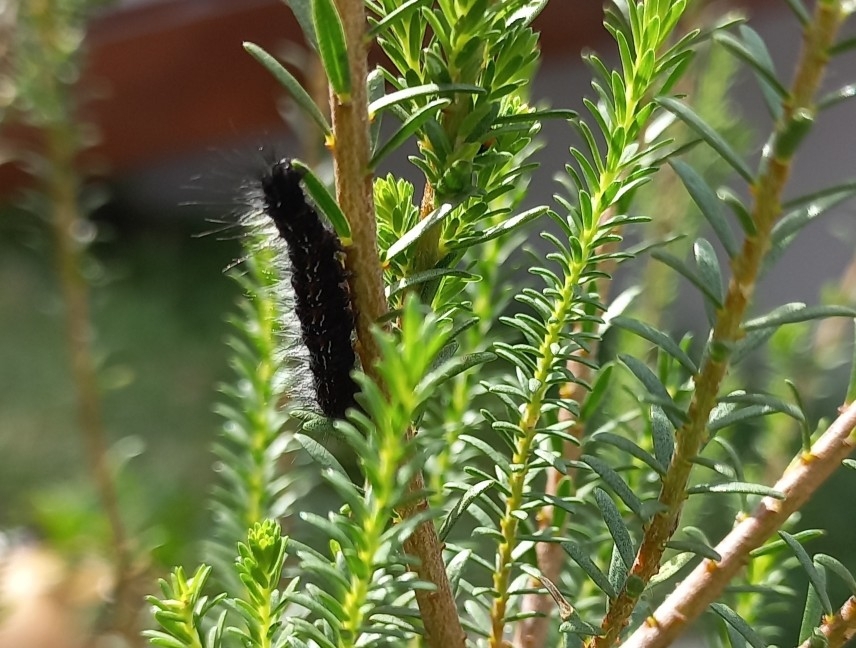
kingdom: Animalia
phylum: Arthropoda
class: Insecta
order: Lepidoptera
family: Lasiocampidae
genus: Mesocelis
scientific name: Mesocelis monticola
